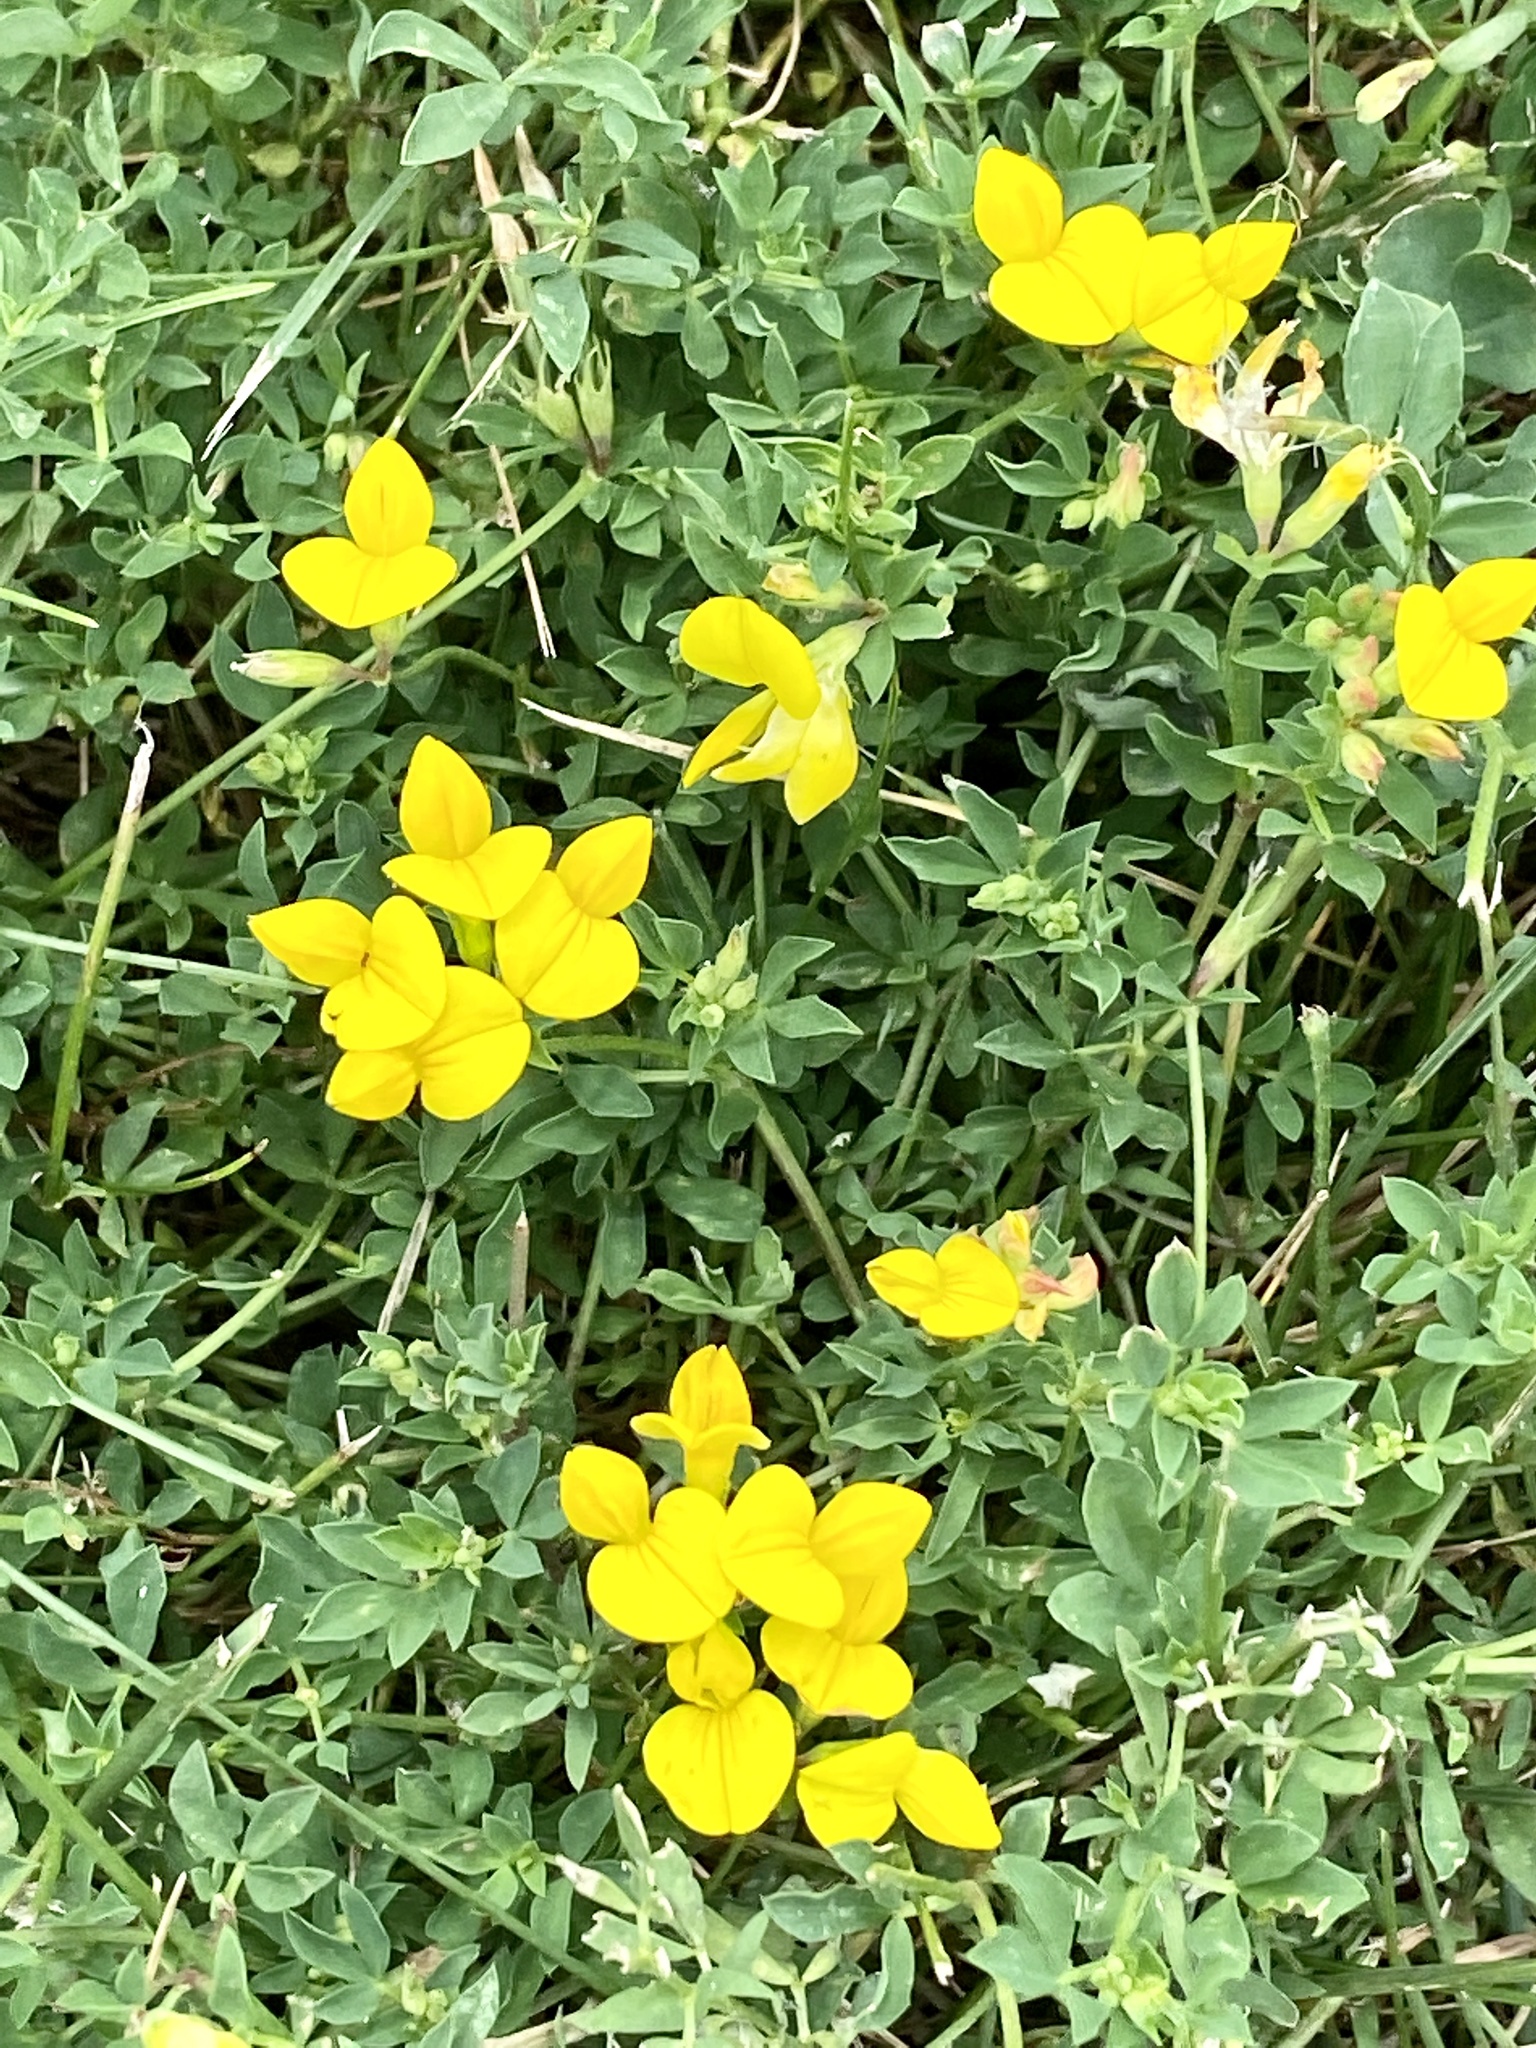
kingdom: Plantae
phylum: Tracheophyta
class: Magnoliopsida
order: Fabales
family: Fabaceae
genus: Lotus
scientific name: Lotus corniculatus
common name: Common bird's-foot-trefoil
